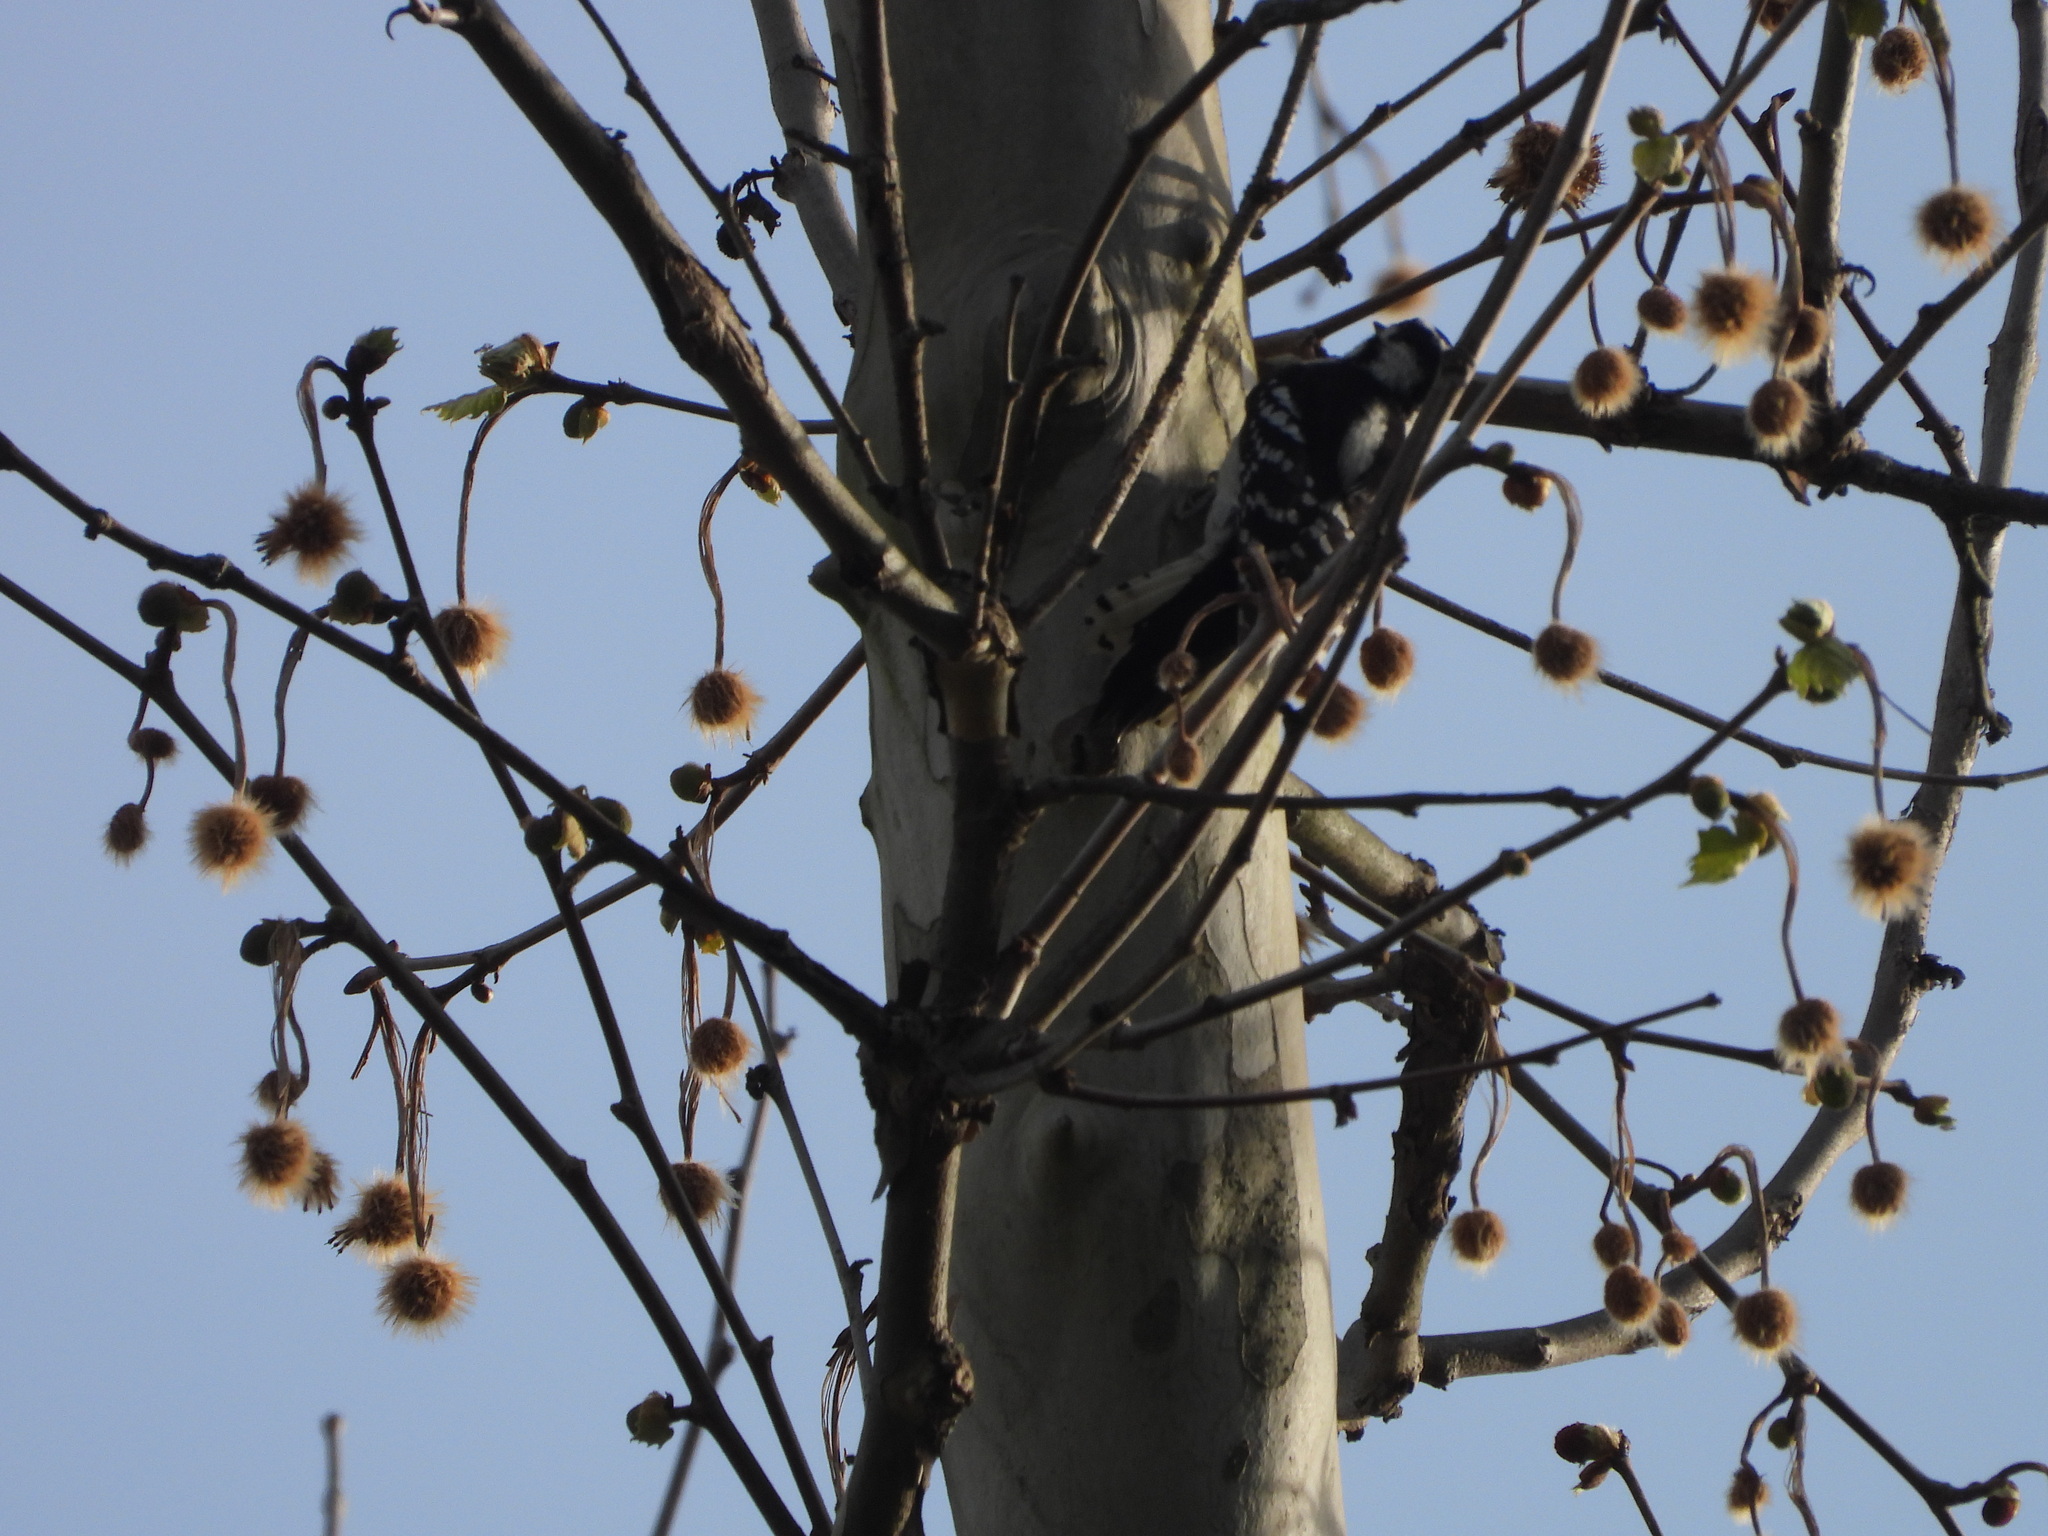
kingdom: Animalia
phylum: Chordata
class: Aves
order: Piciformes
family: Picidae
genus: Dryobates
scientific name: Dryobates pubescens
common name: Downy woodpecker
